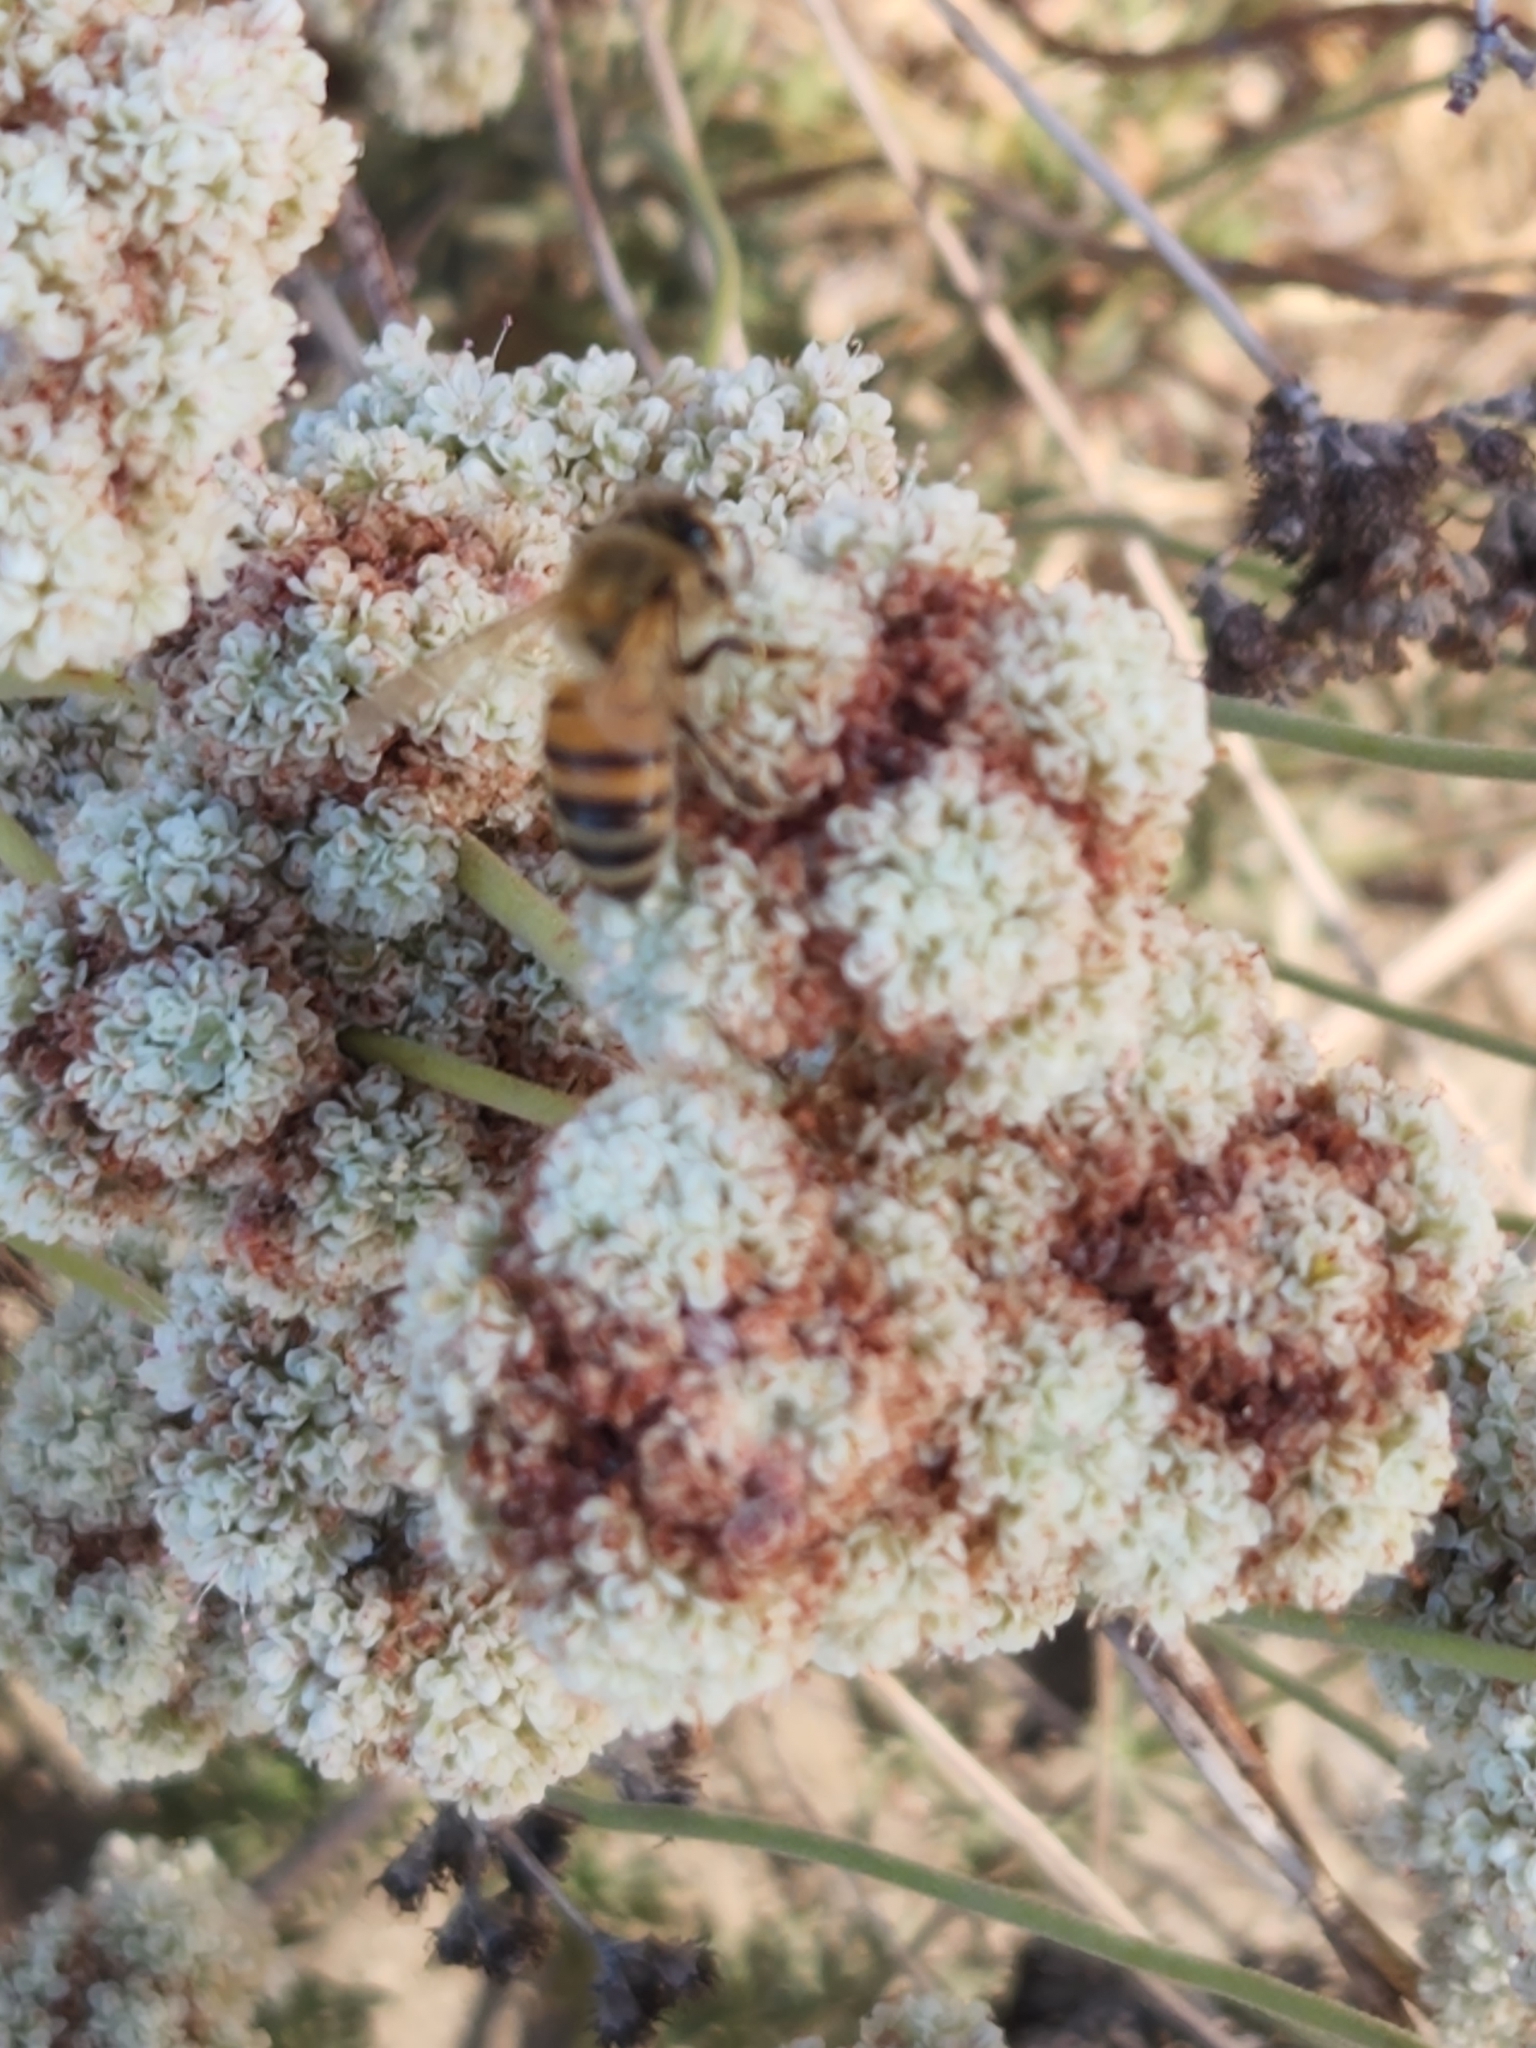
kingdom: Animalia
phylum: Arthropoda
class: Insecta
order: Hymenoptera
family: Apidae
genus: Apis
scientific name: Apis mellifera
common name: Honey bee
